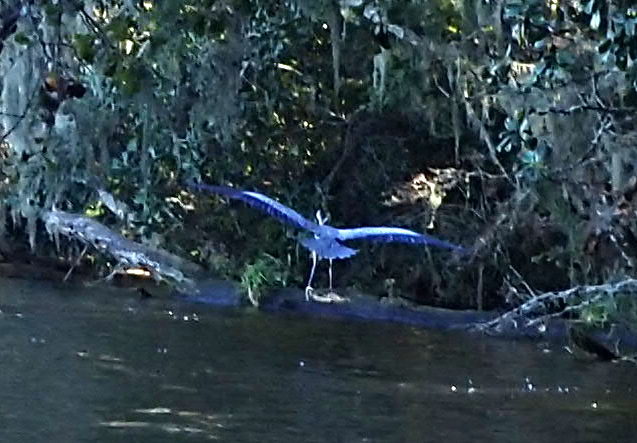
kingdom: Animalia
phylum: Chordata
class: Aves
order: Pelecaniformes
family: Ardeidae
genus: Ardea
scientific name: Ardea herodias
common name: Great blue heron
